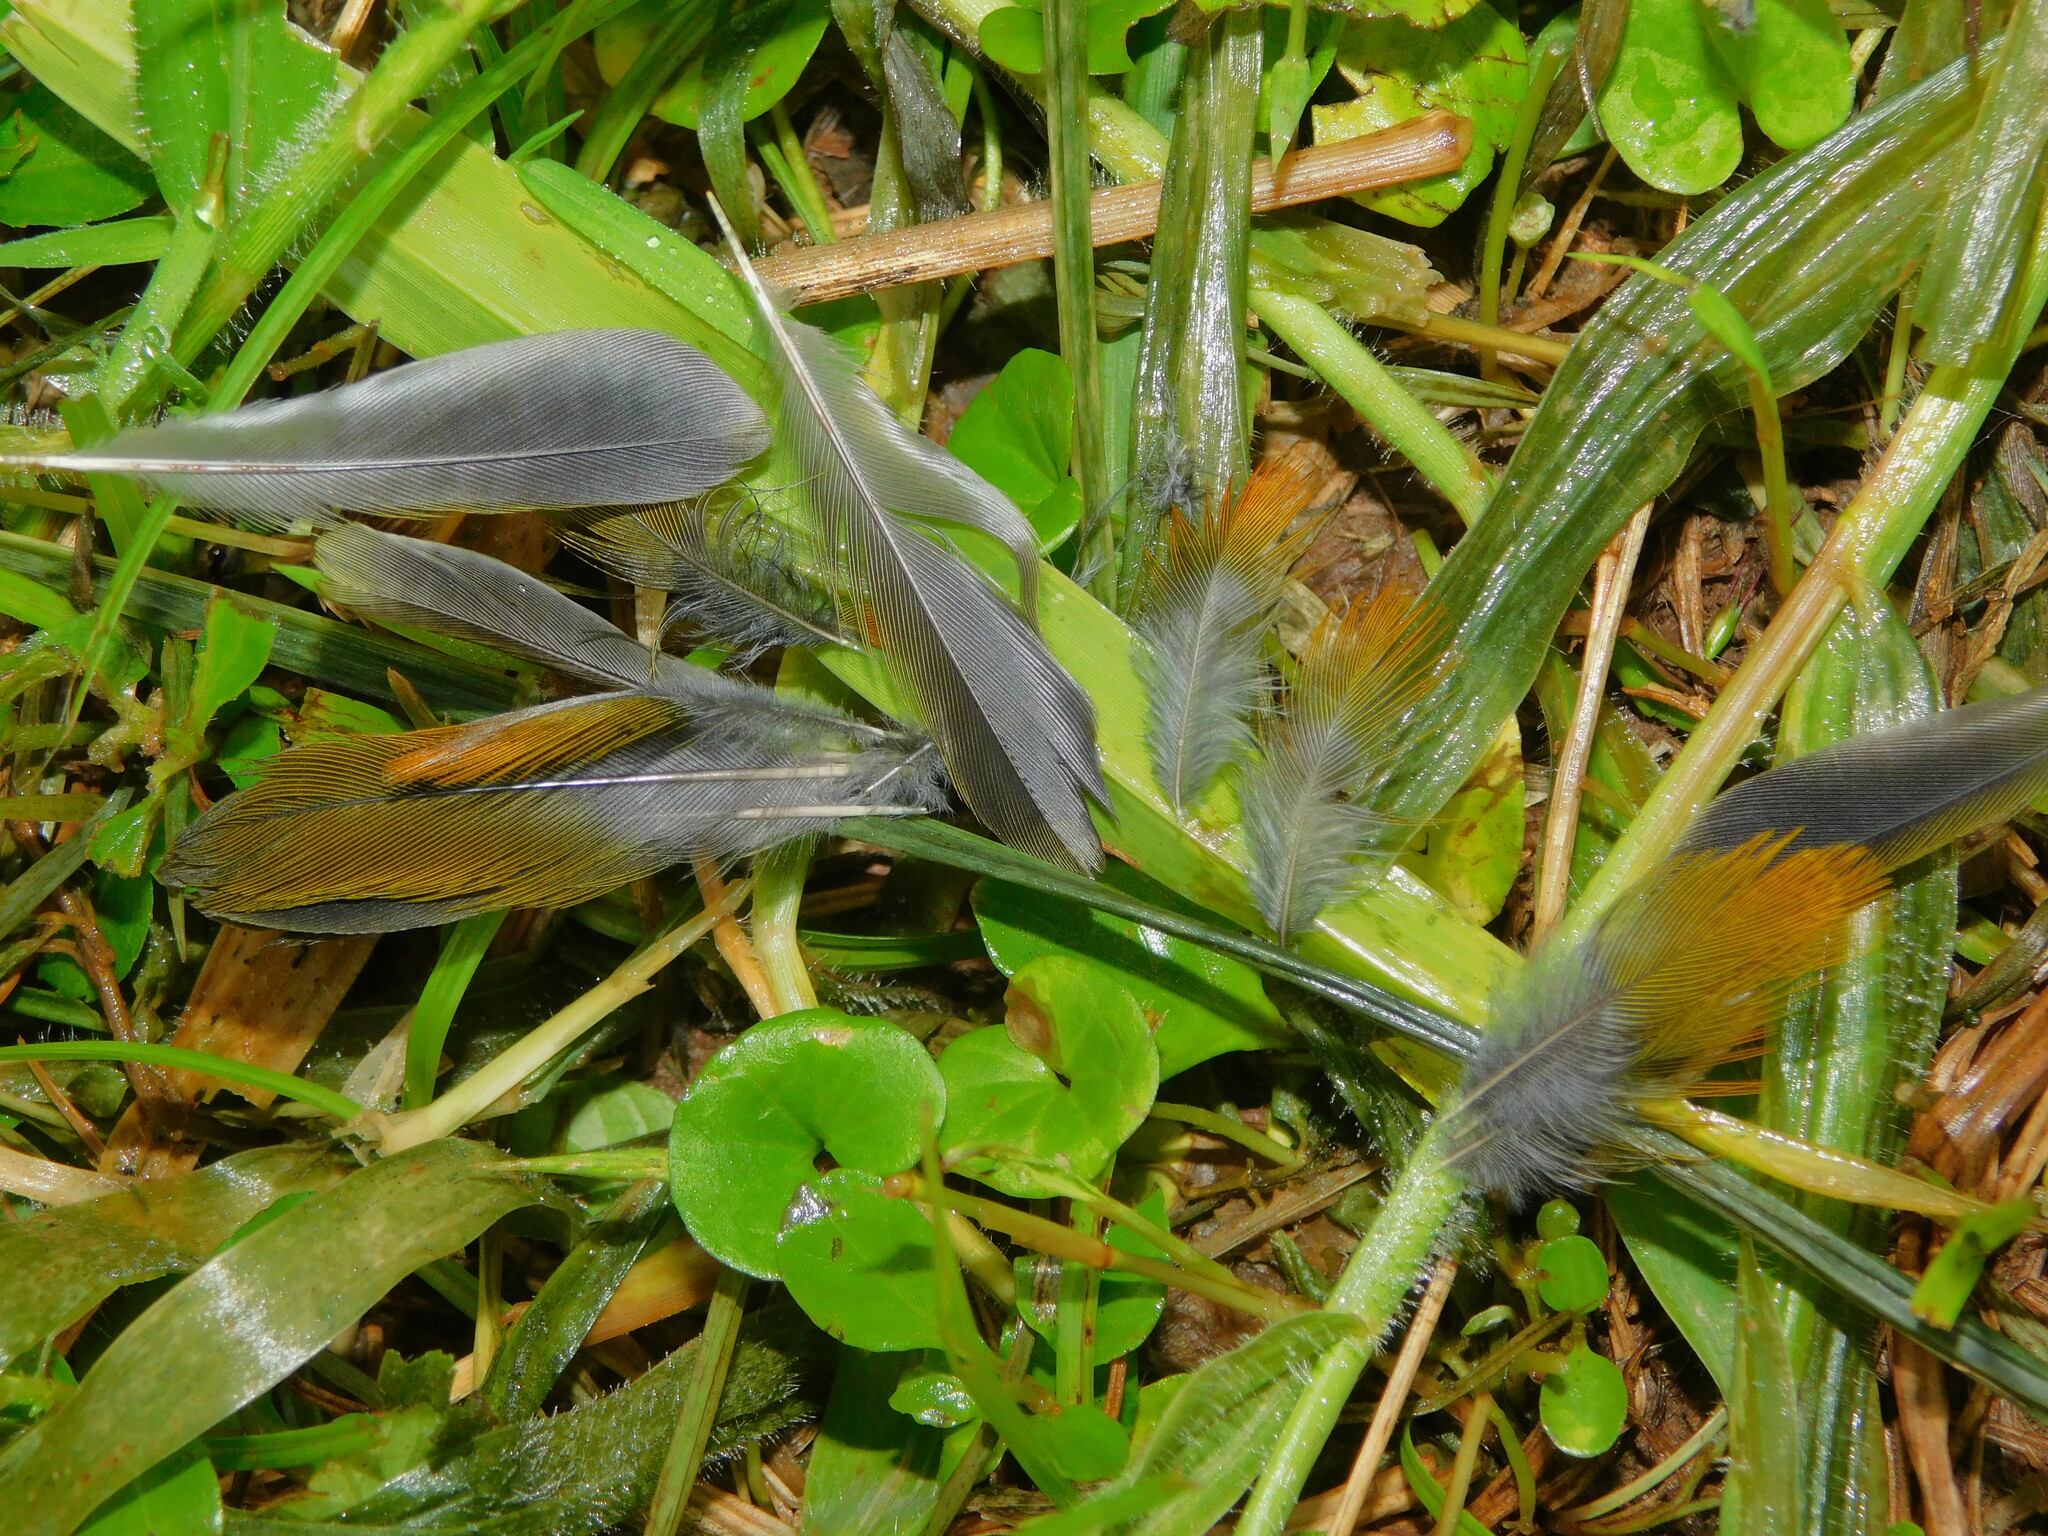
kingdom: Animalia
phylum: Chordata
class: Aves
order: Passeriformes
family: Estrildidae
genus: Mandingoa
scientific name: Mandingoa nitidula
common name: Green twinspot
